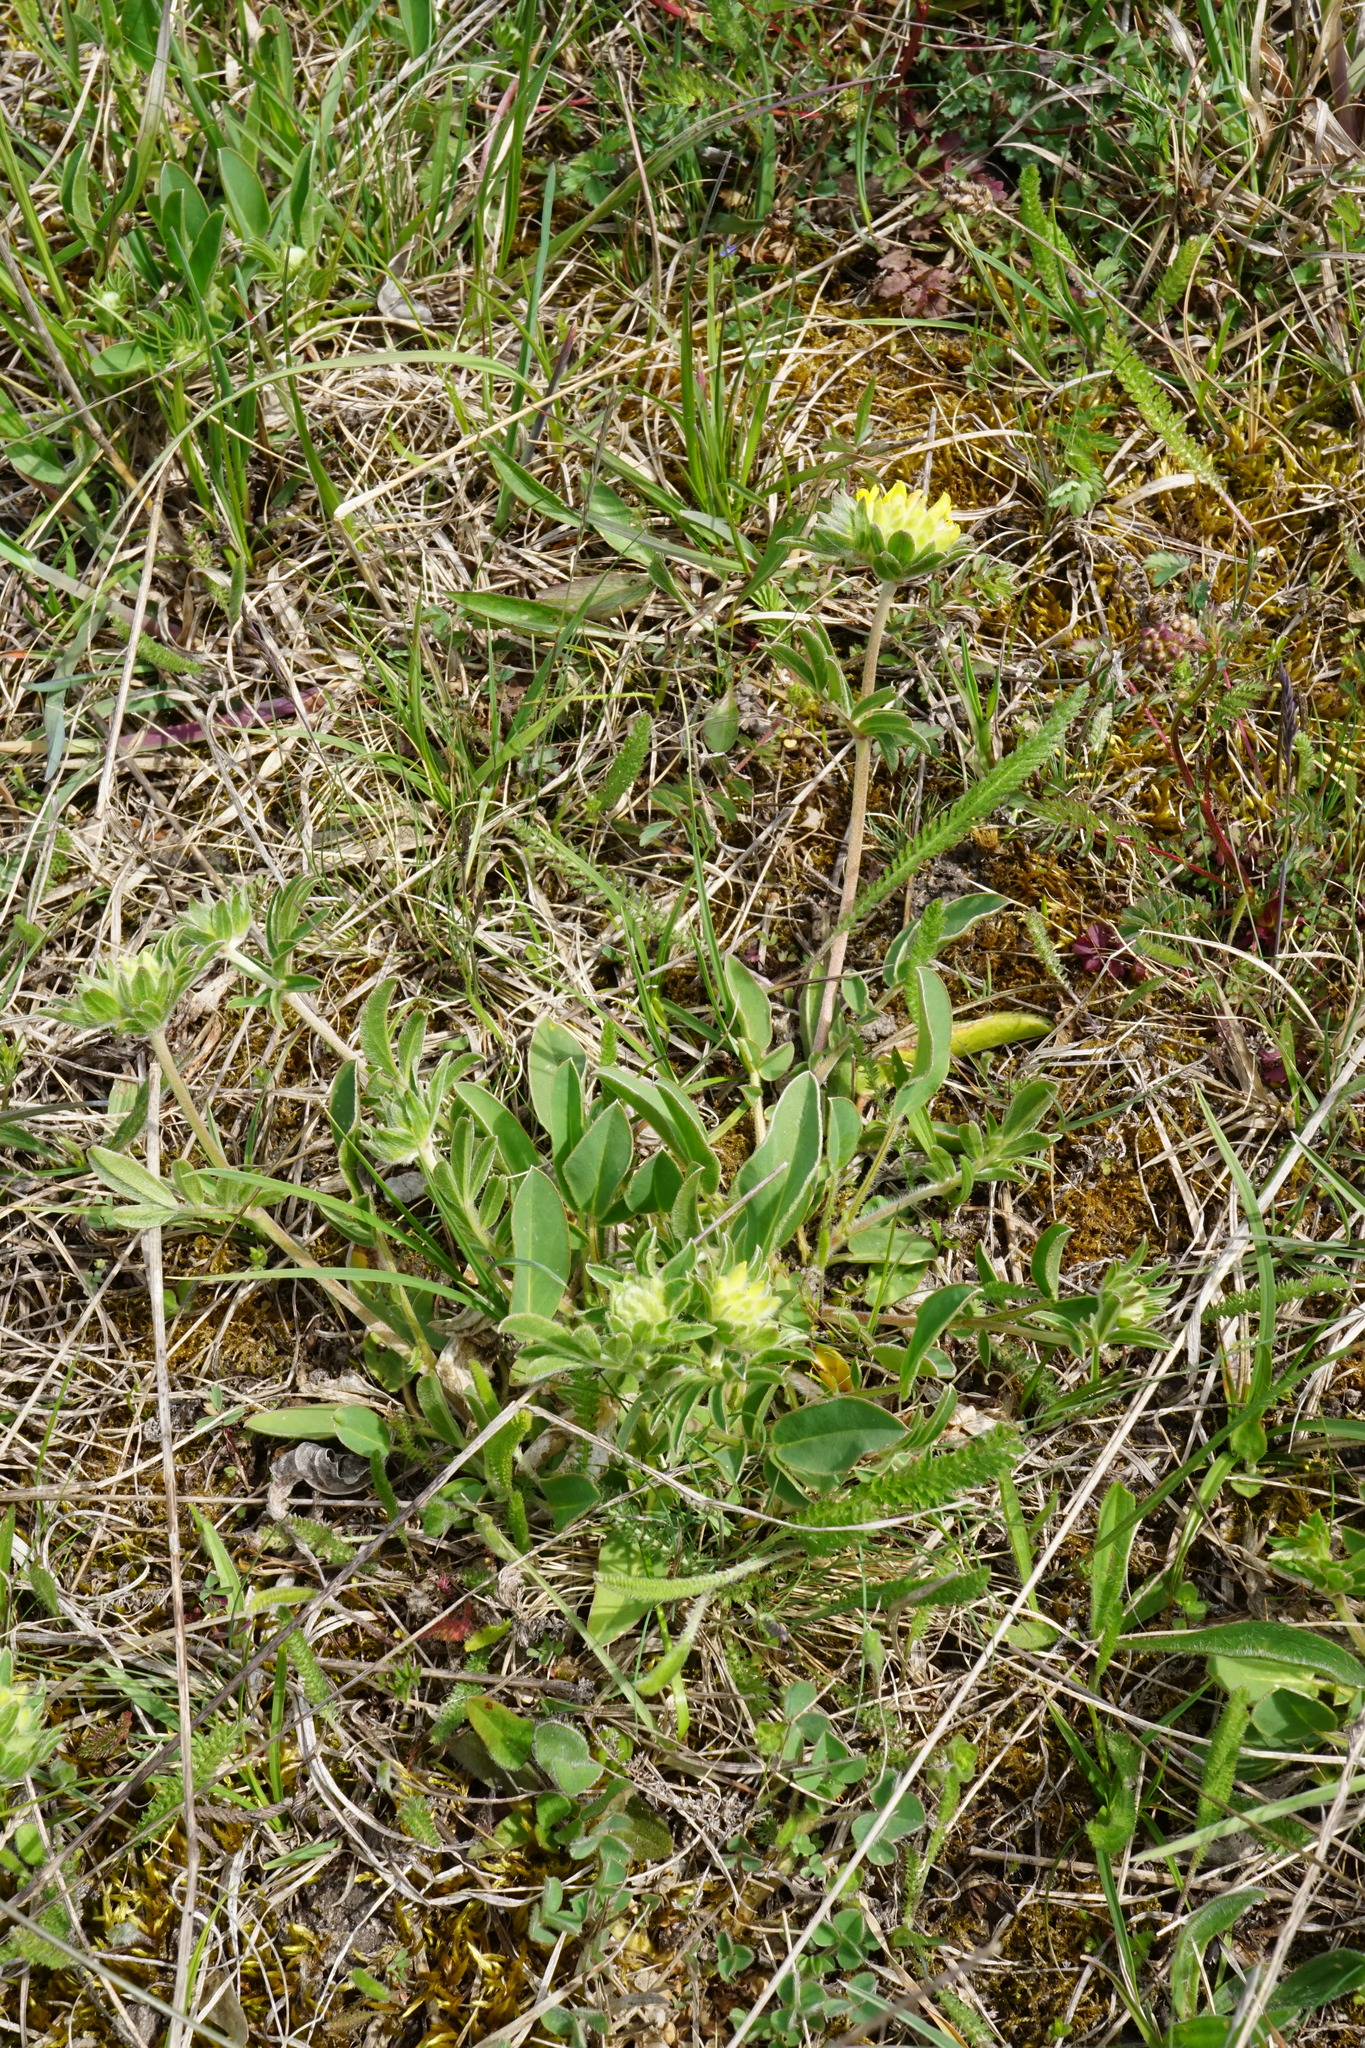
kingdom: Plantae
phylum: Tracheophyta
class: Magnoliopsida
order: Fabales
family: Fabaceae
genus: Anthyllis
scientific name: Anthyllis vulneraria
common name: Kidney vetch
